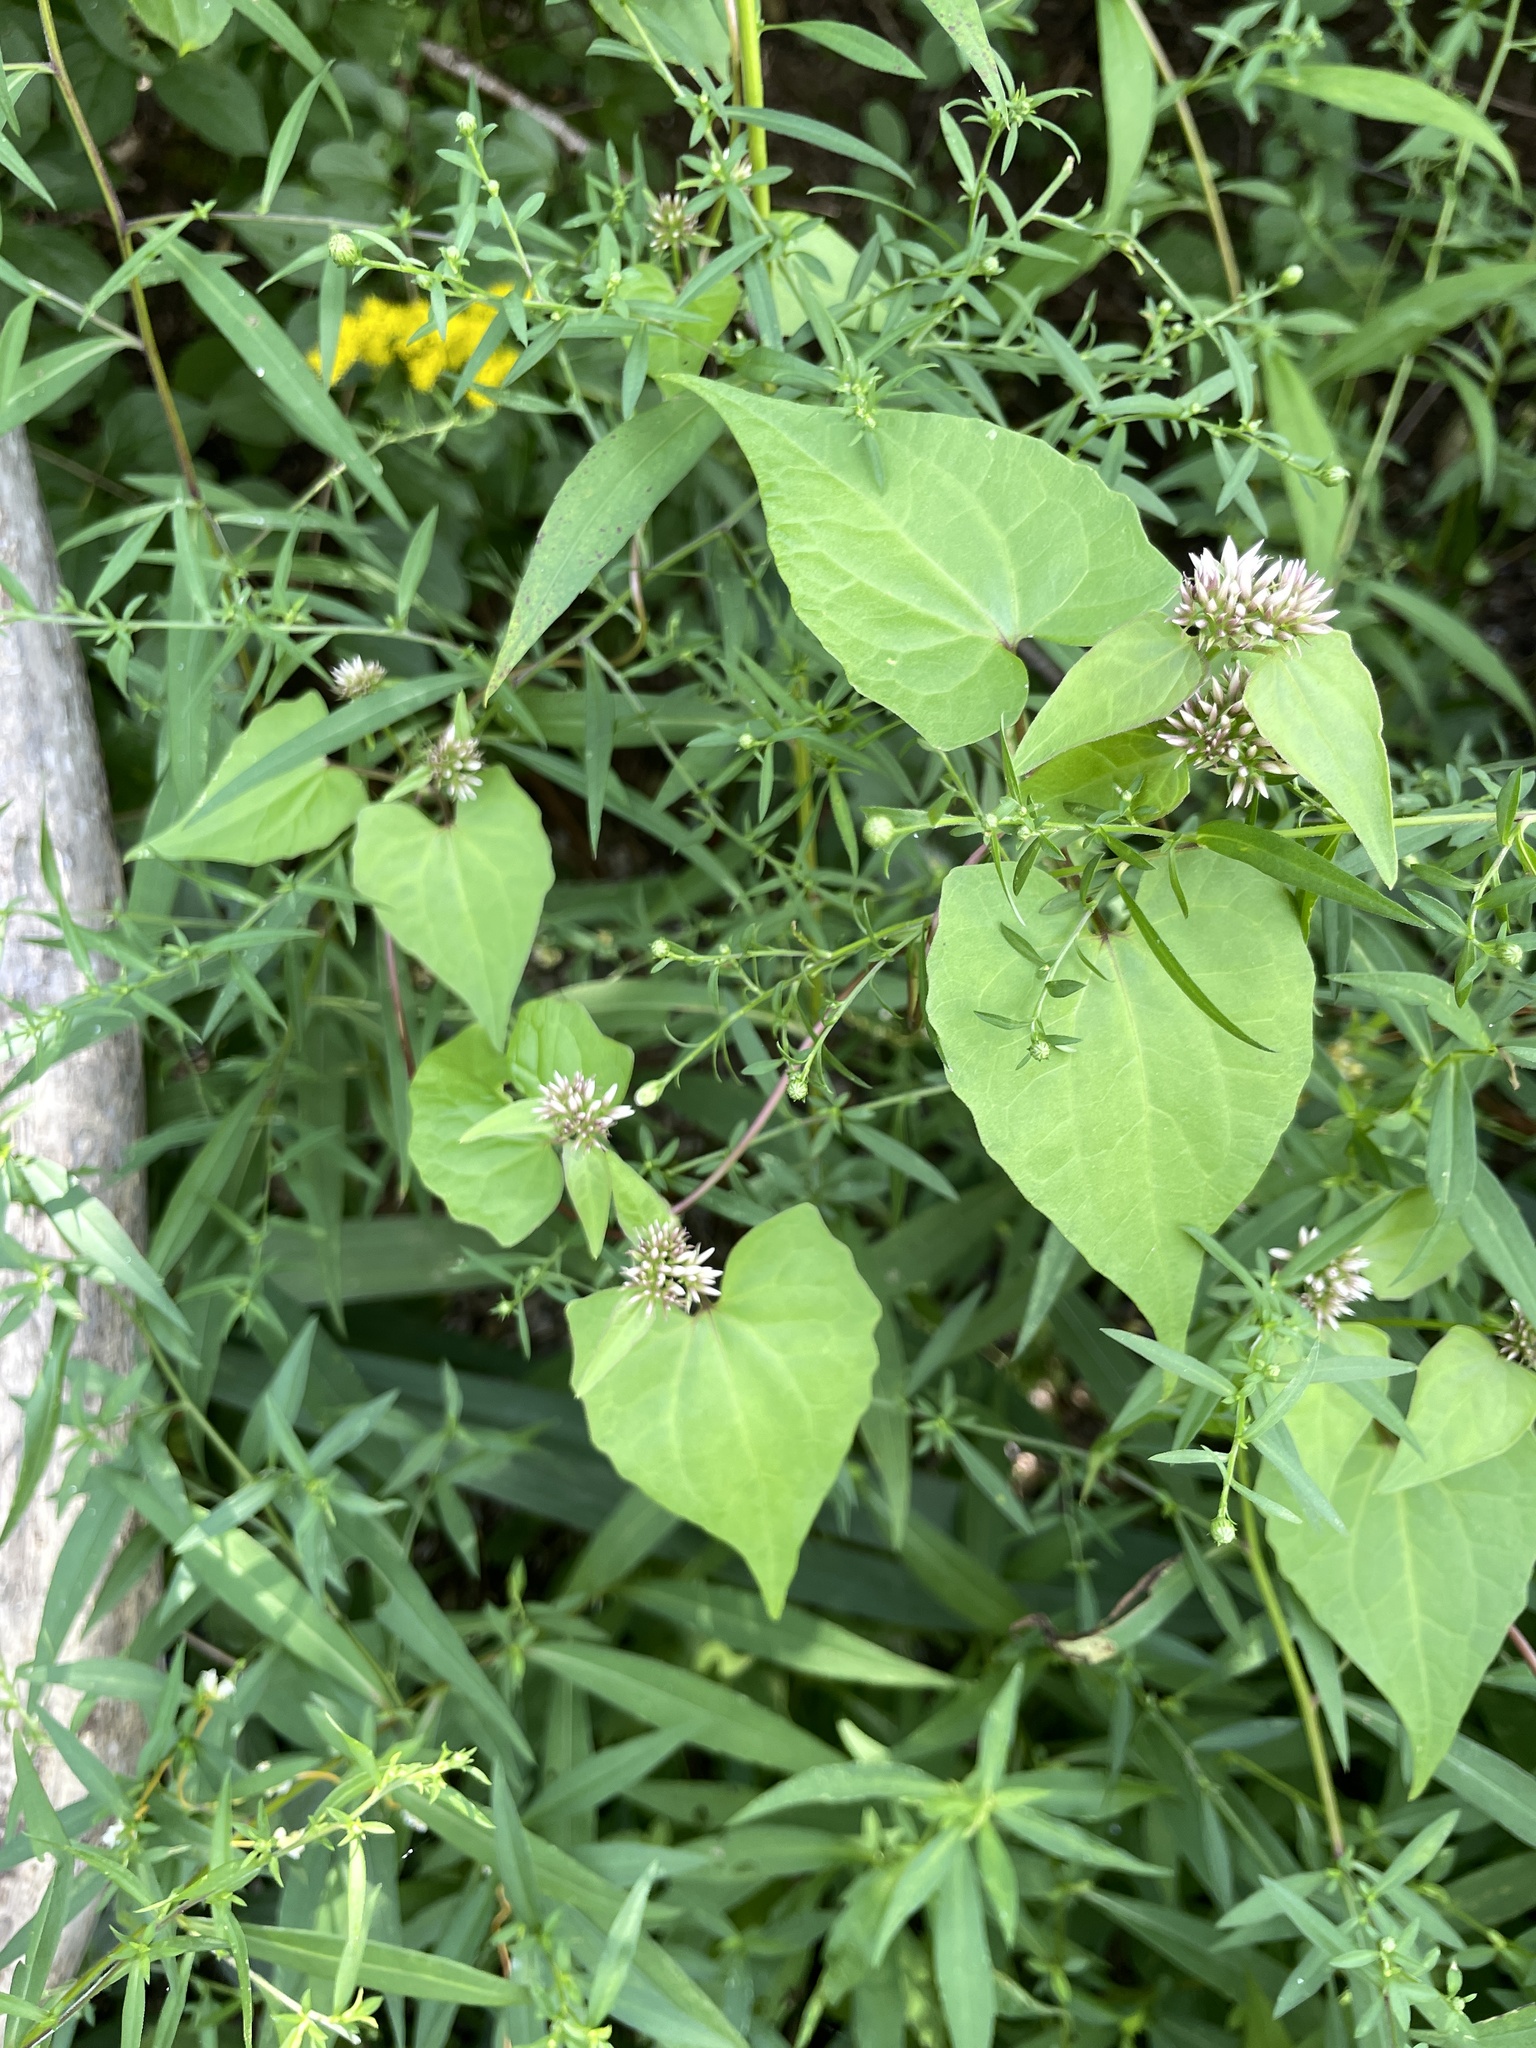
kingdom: Plantae
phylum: Tracheophyta
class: Magnoliopsida
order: Asterales
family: Asteraceae
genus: Mikania
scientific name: Mikania scandens
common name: Climbing hempvine
